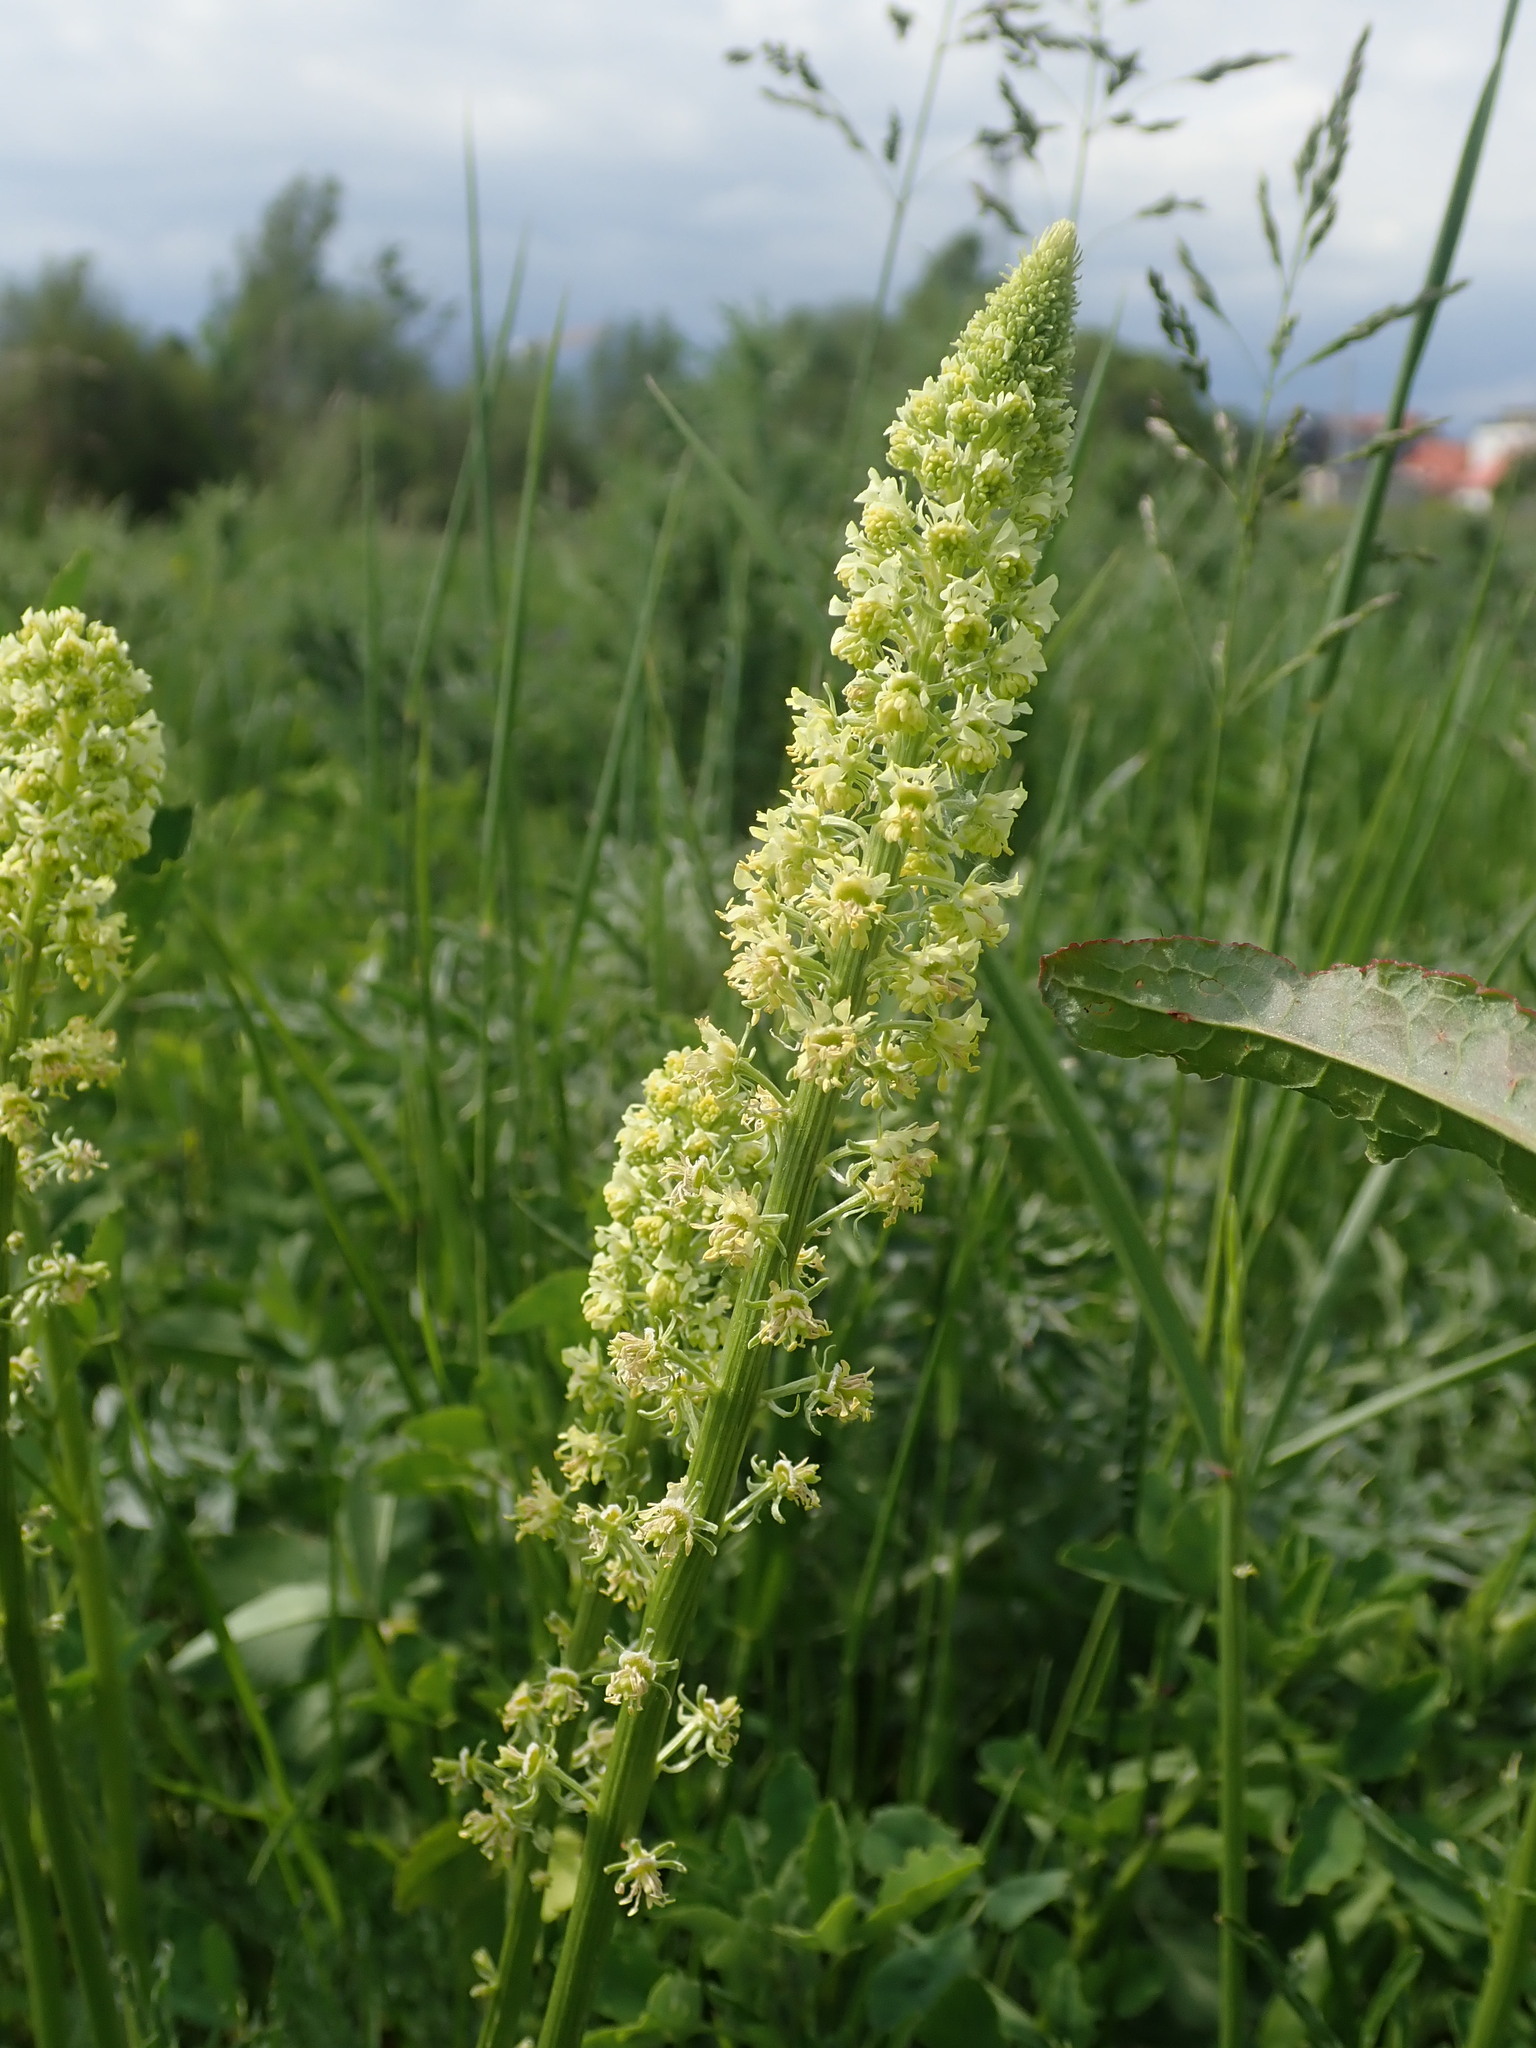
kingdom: Plantae
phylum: Tracheophyta
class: Magnoliopsida
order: Brassicales
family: Resedaceae
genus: Reseda
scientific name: Reseda lutea
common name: Wild mignonette
